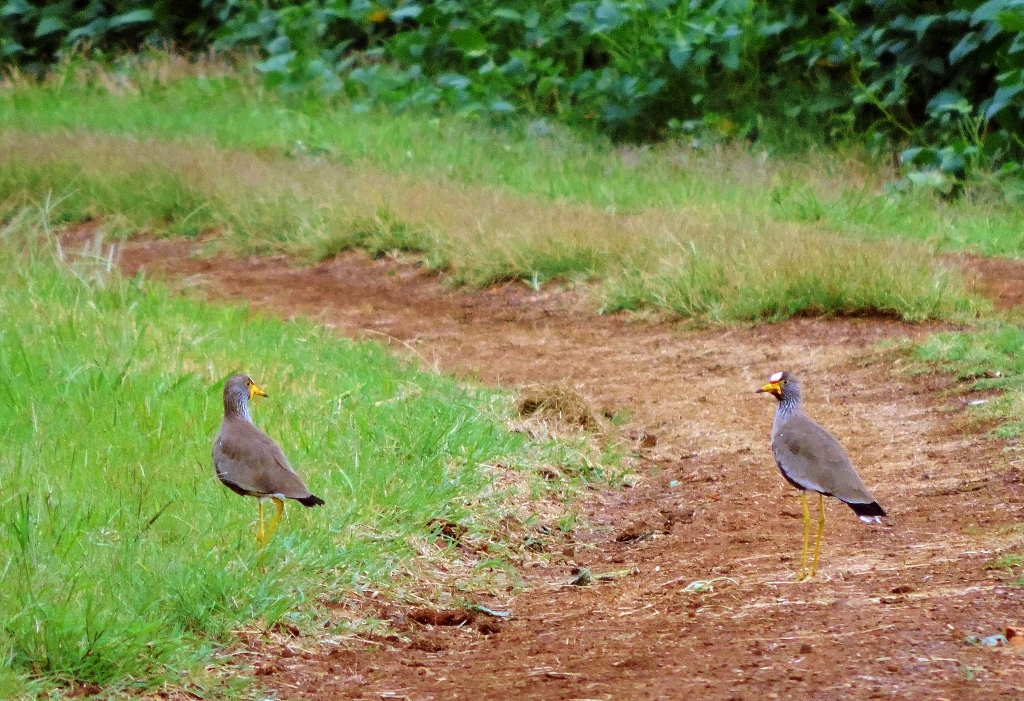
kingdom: Animalia
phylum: Chordata
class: Aves
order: Charadriiformes
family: Charadriidae
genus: Vanellus
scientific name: Vanellus senegallus
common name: African wattled lapwing
